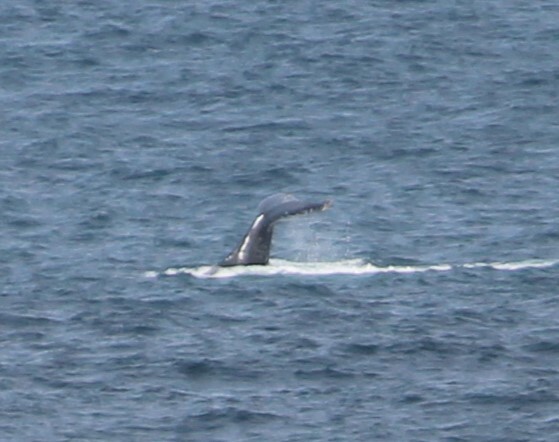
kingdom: Animalia
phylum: Chordata
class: Mammalia
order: Cetacea
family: Balaenopteridae
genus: Megaptera
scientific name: Megaptera novaeangliae
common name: Humpback whale
